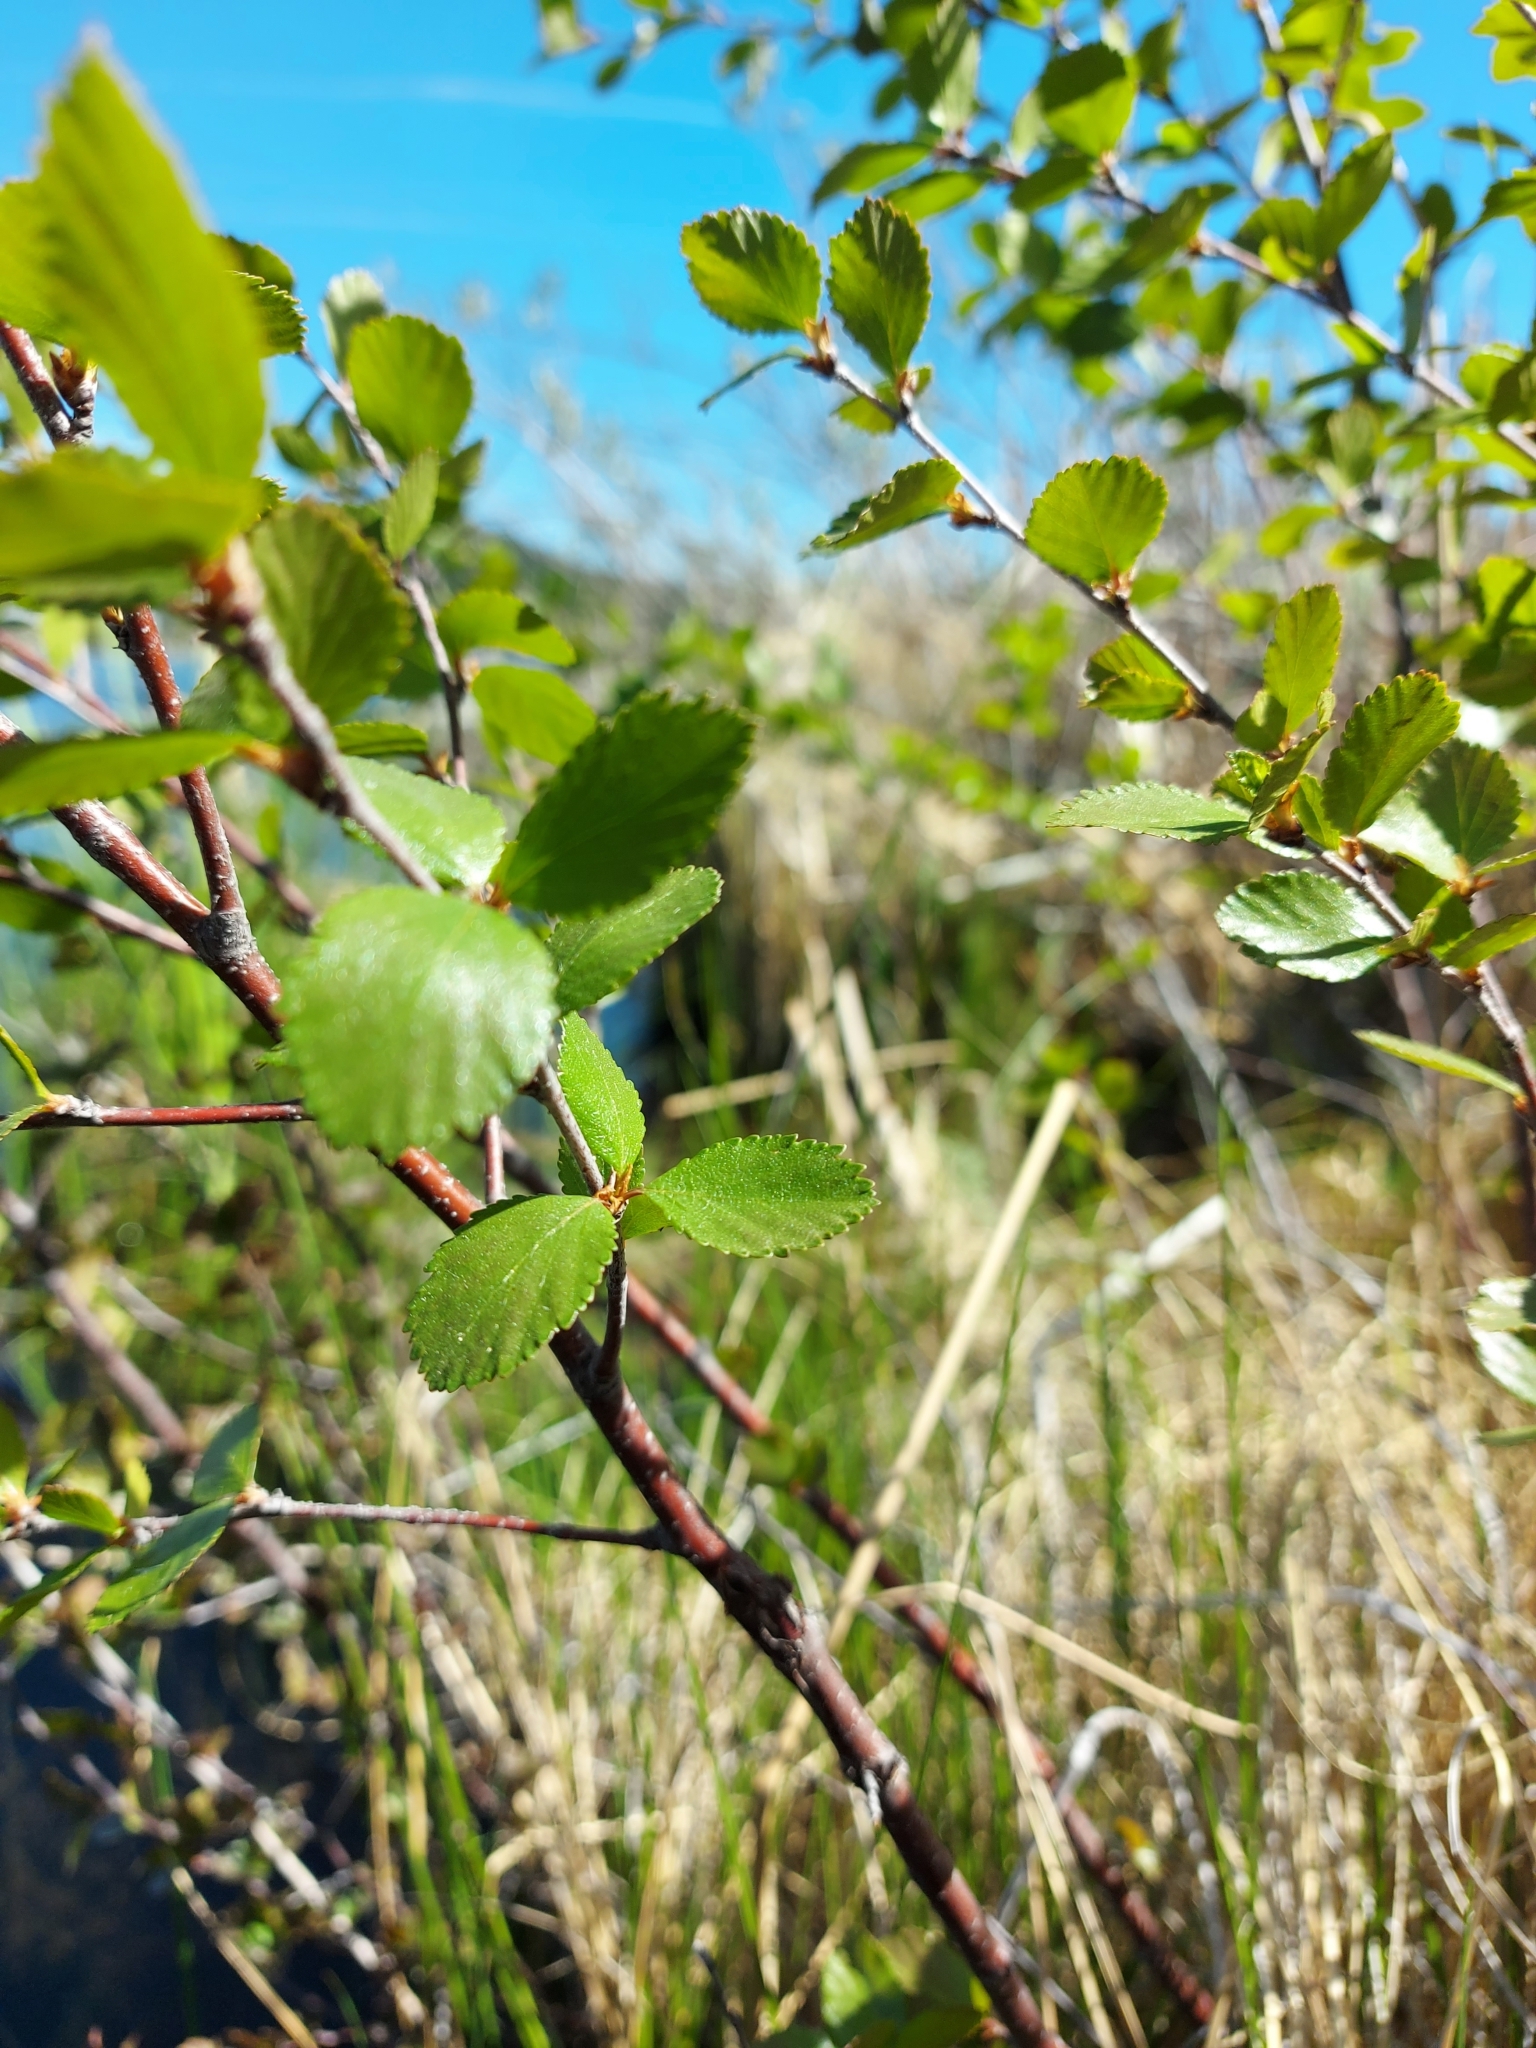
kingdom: Plantae
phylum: Tracheophyta
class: Magnoliopsida
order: Fagales
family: Betulaceae
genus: Betula
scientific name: Betula occidentalis
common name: River birch
